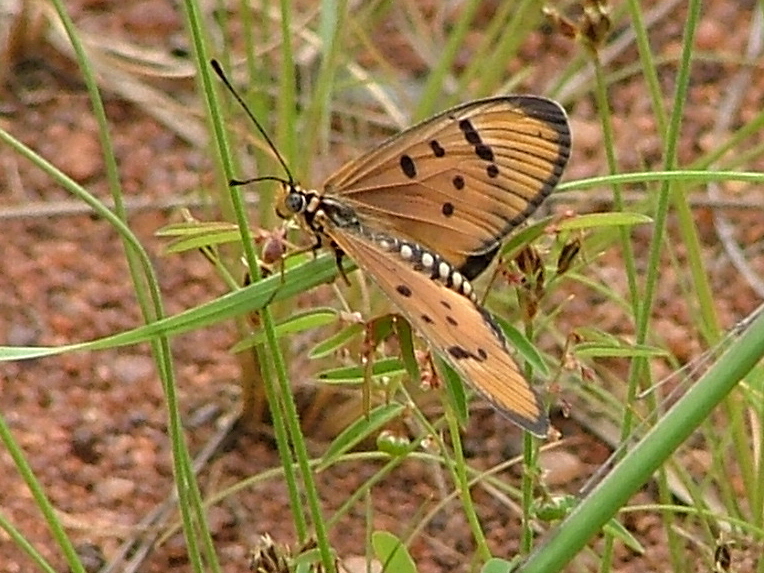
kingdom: Animalia
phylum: Arthropoda
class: Insecta
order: Lepidoptera
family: Nymphalidae
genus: Stephenia
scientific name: Stephenia
